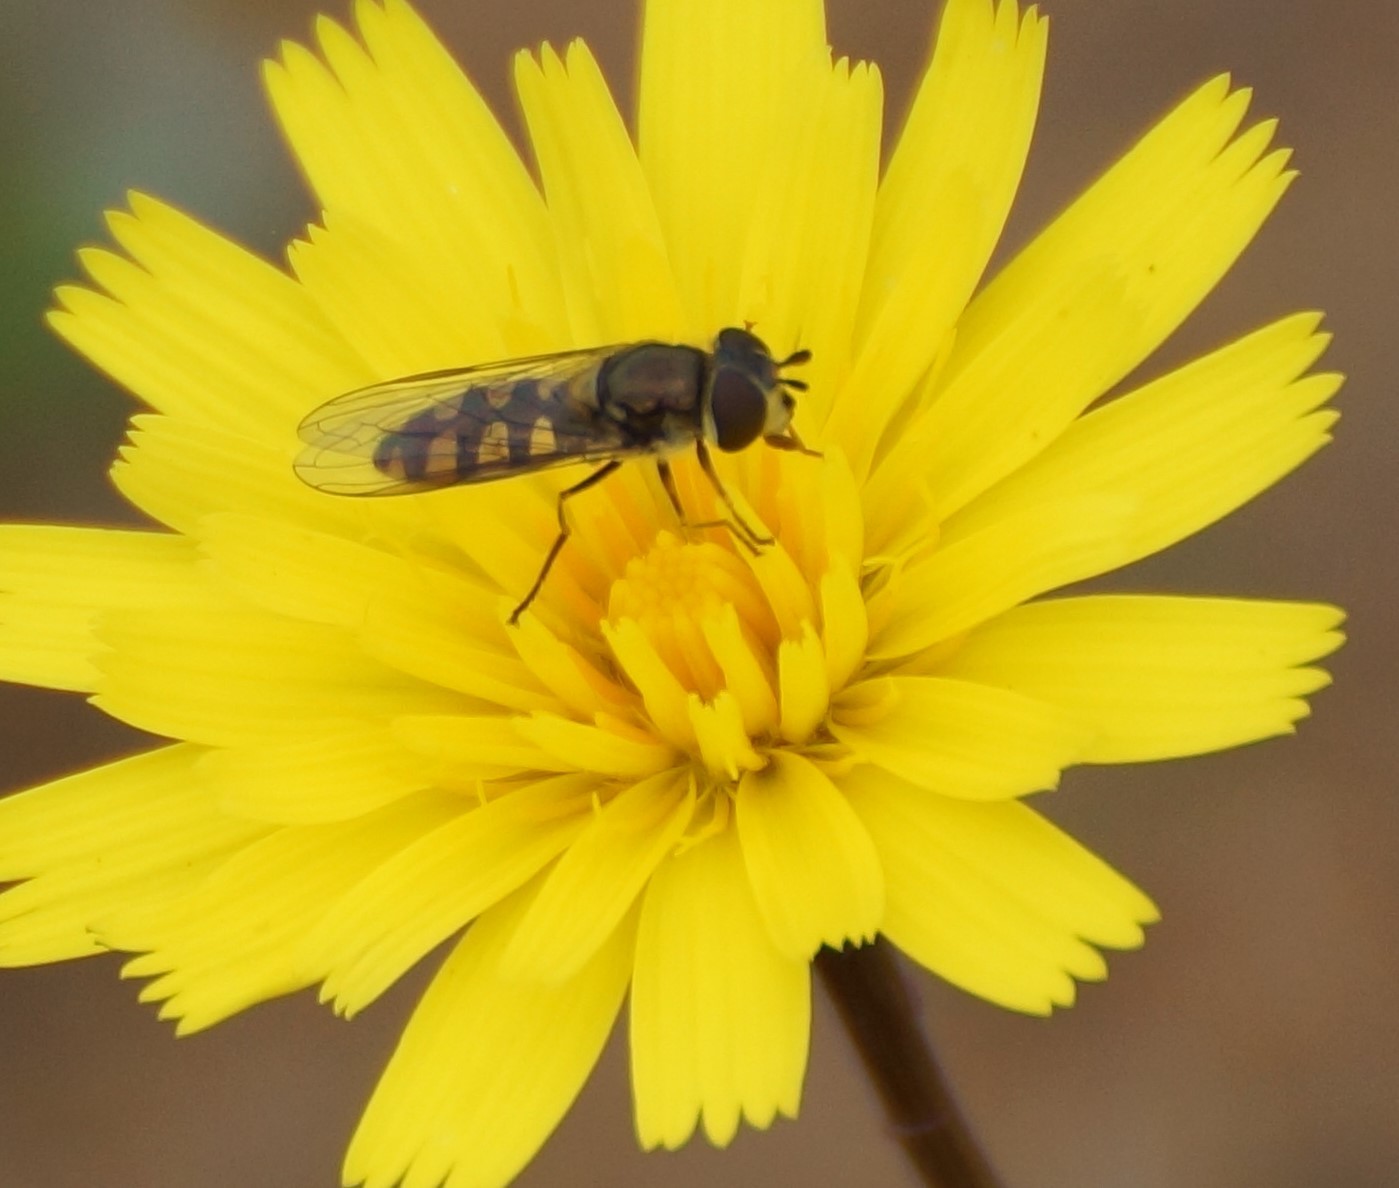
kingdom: Animalia
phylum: Arthropoda
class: Insecta
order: Diptera
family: Syrphidae
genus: Melangyna
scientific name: Melangyna viridiceps
